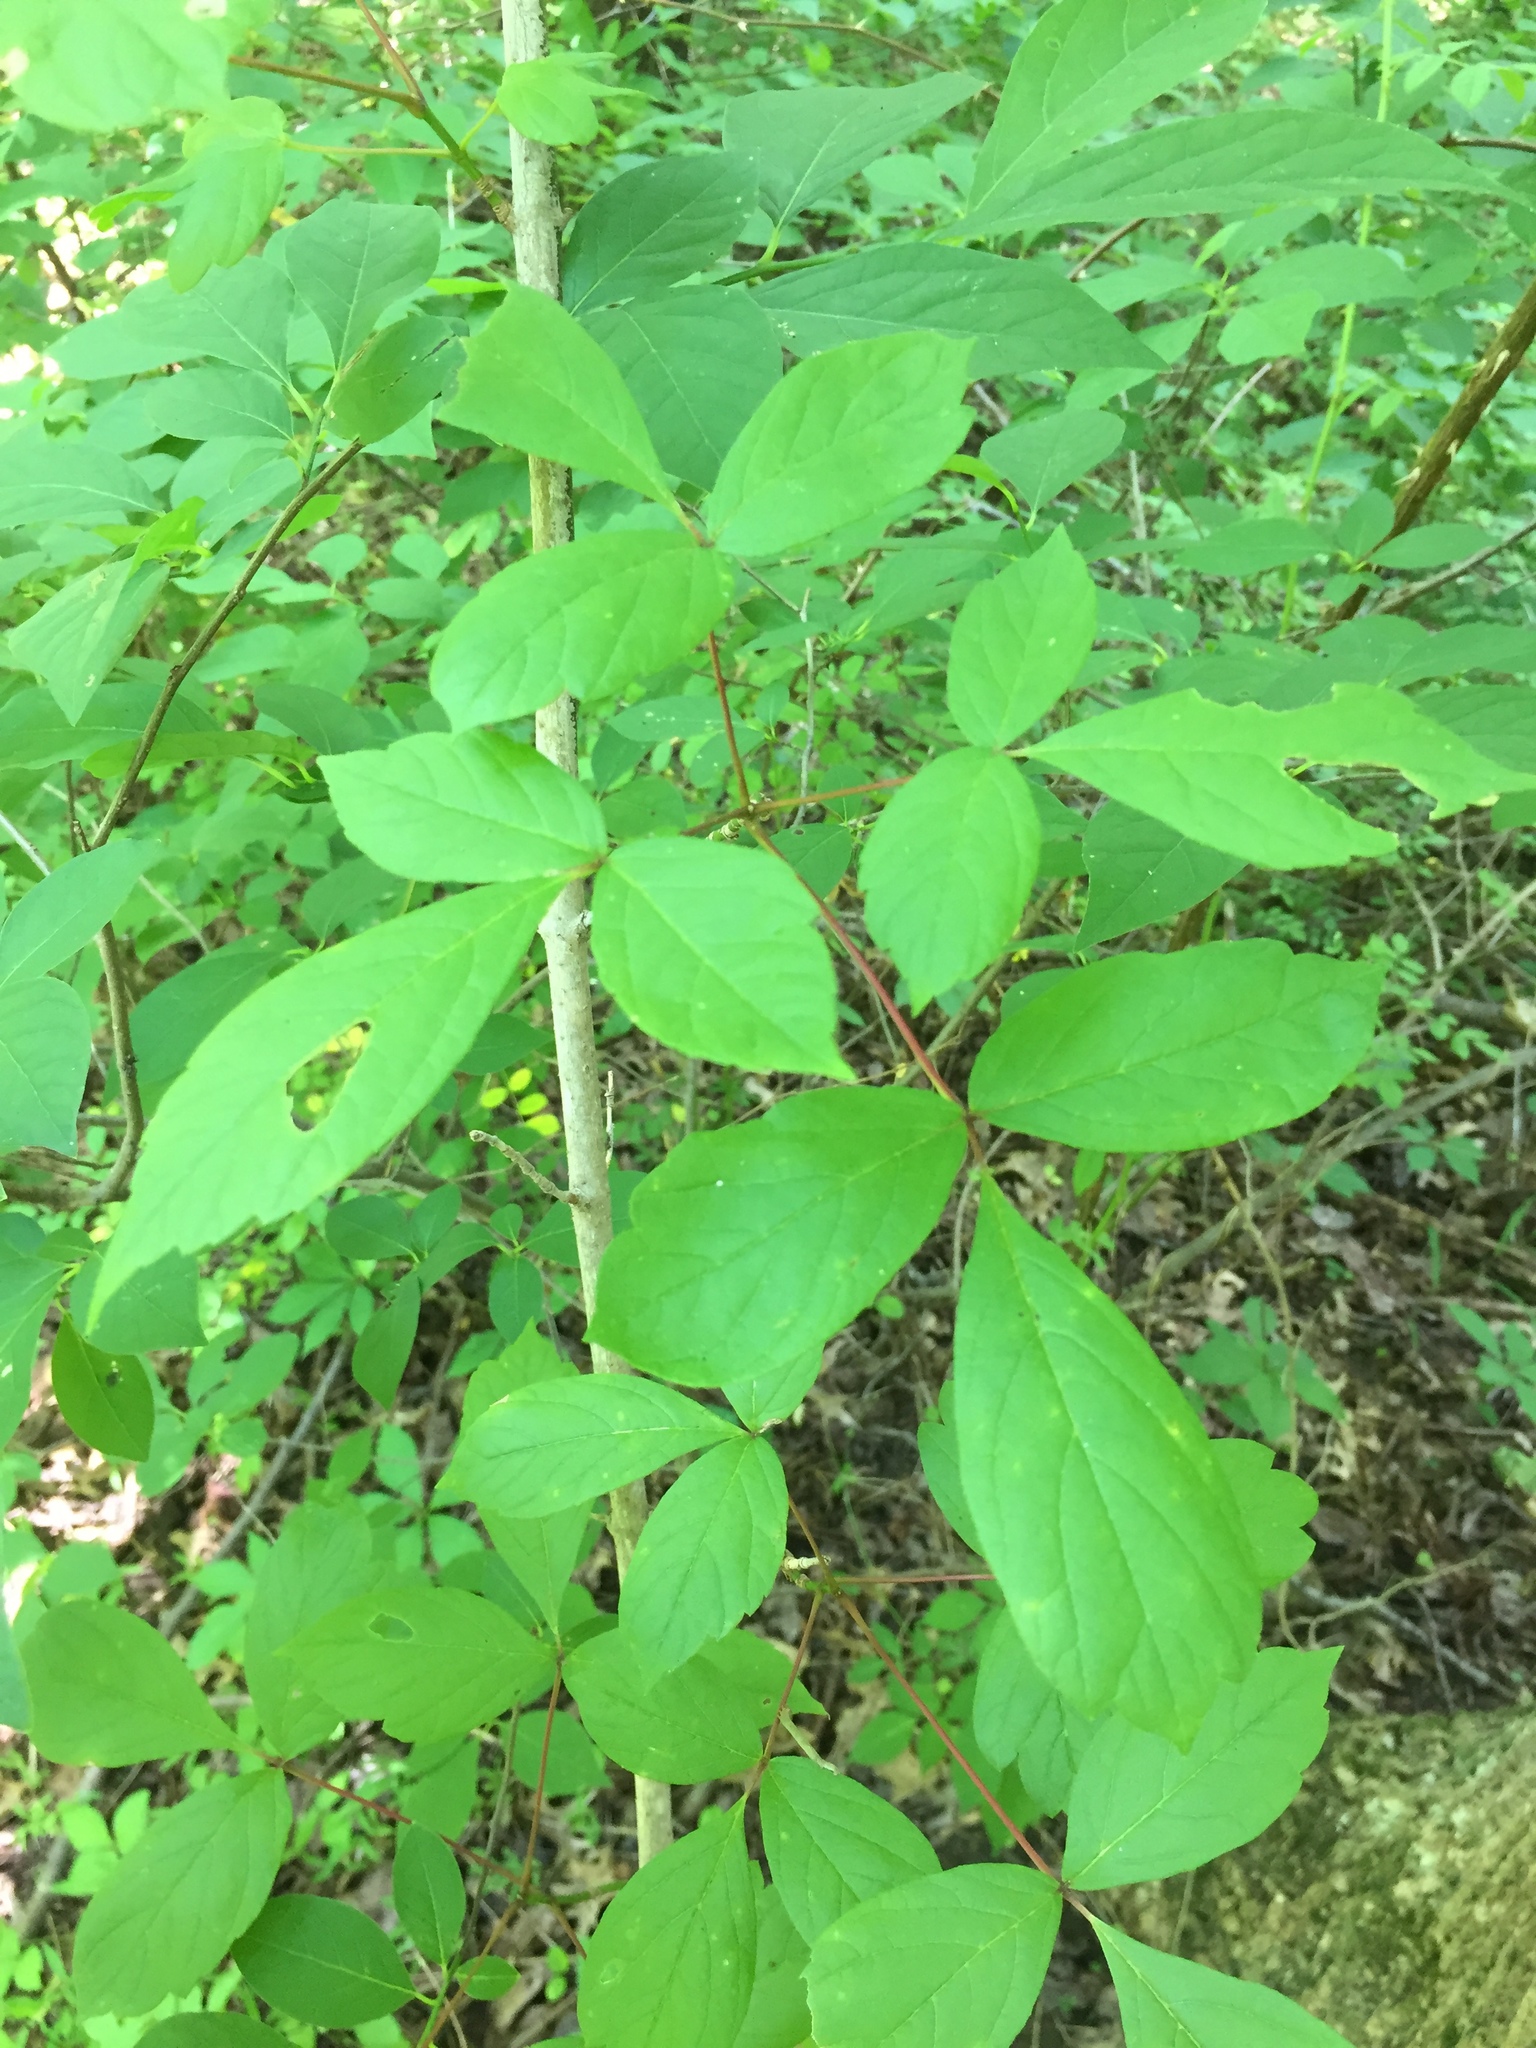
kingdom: Plantae
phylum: Tracheophyta
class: Magnoliopsida
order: Sapindales
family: Sapindaceae
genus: Acer
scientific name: Acer negundo
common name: Ashleaf maple
